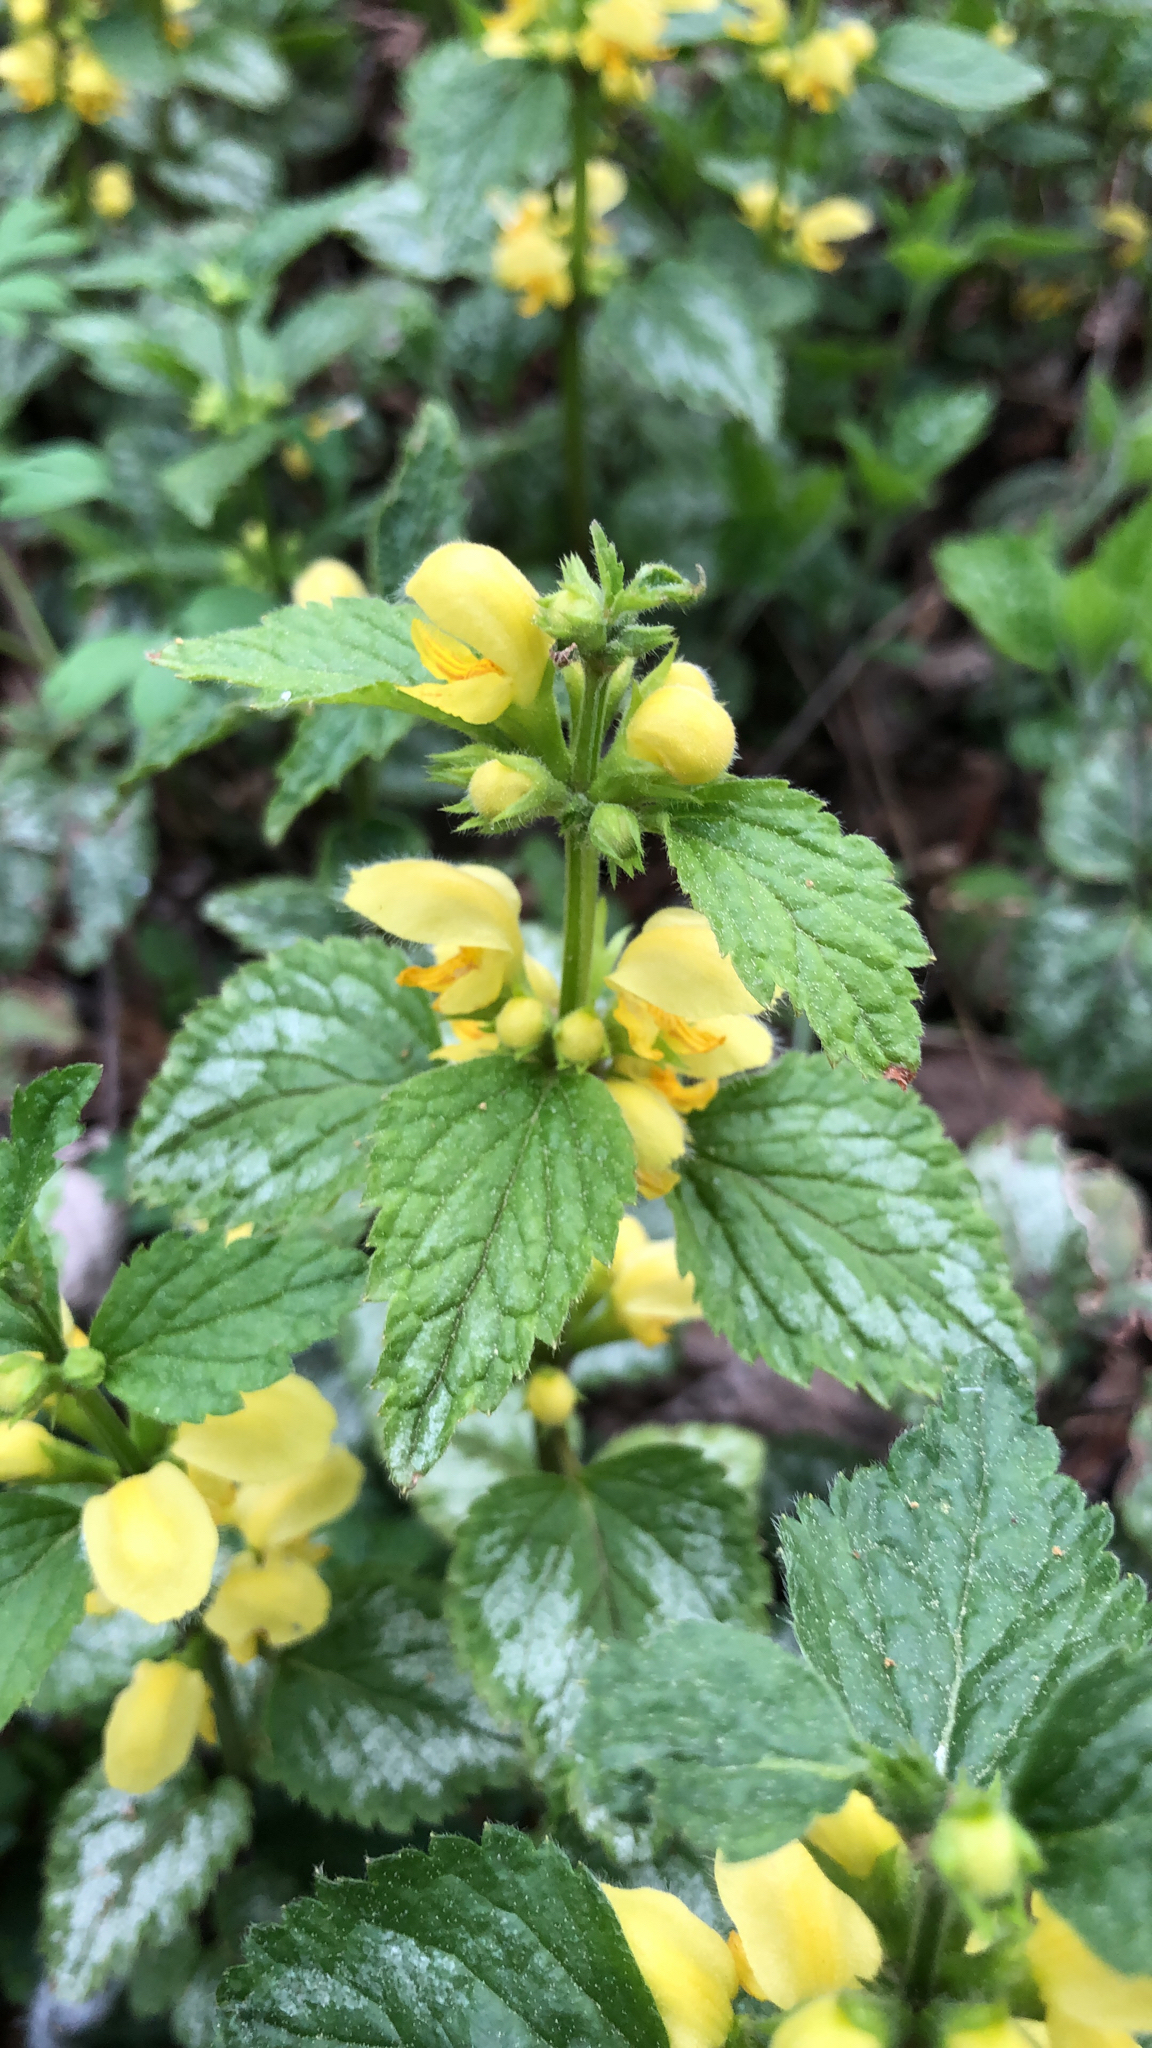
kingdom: Plantae
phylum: Tracheophyta
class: Magnoliopsida
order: Lamiales
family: Lamiaceae
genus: Lamium
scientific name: Lamium galeobdolon
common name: Yellow archangel
